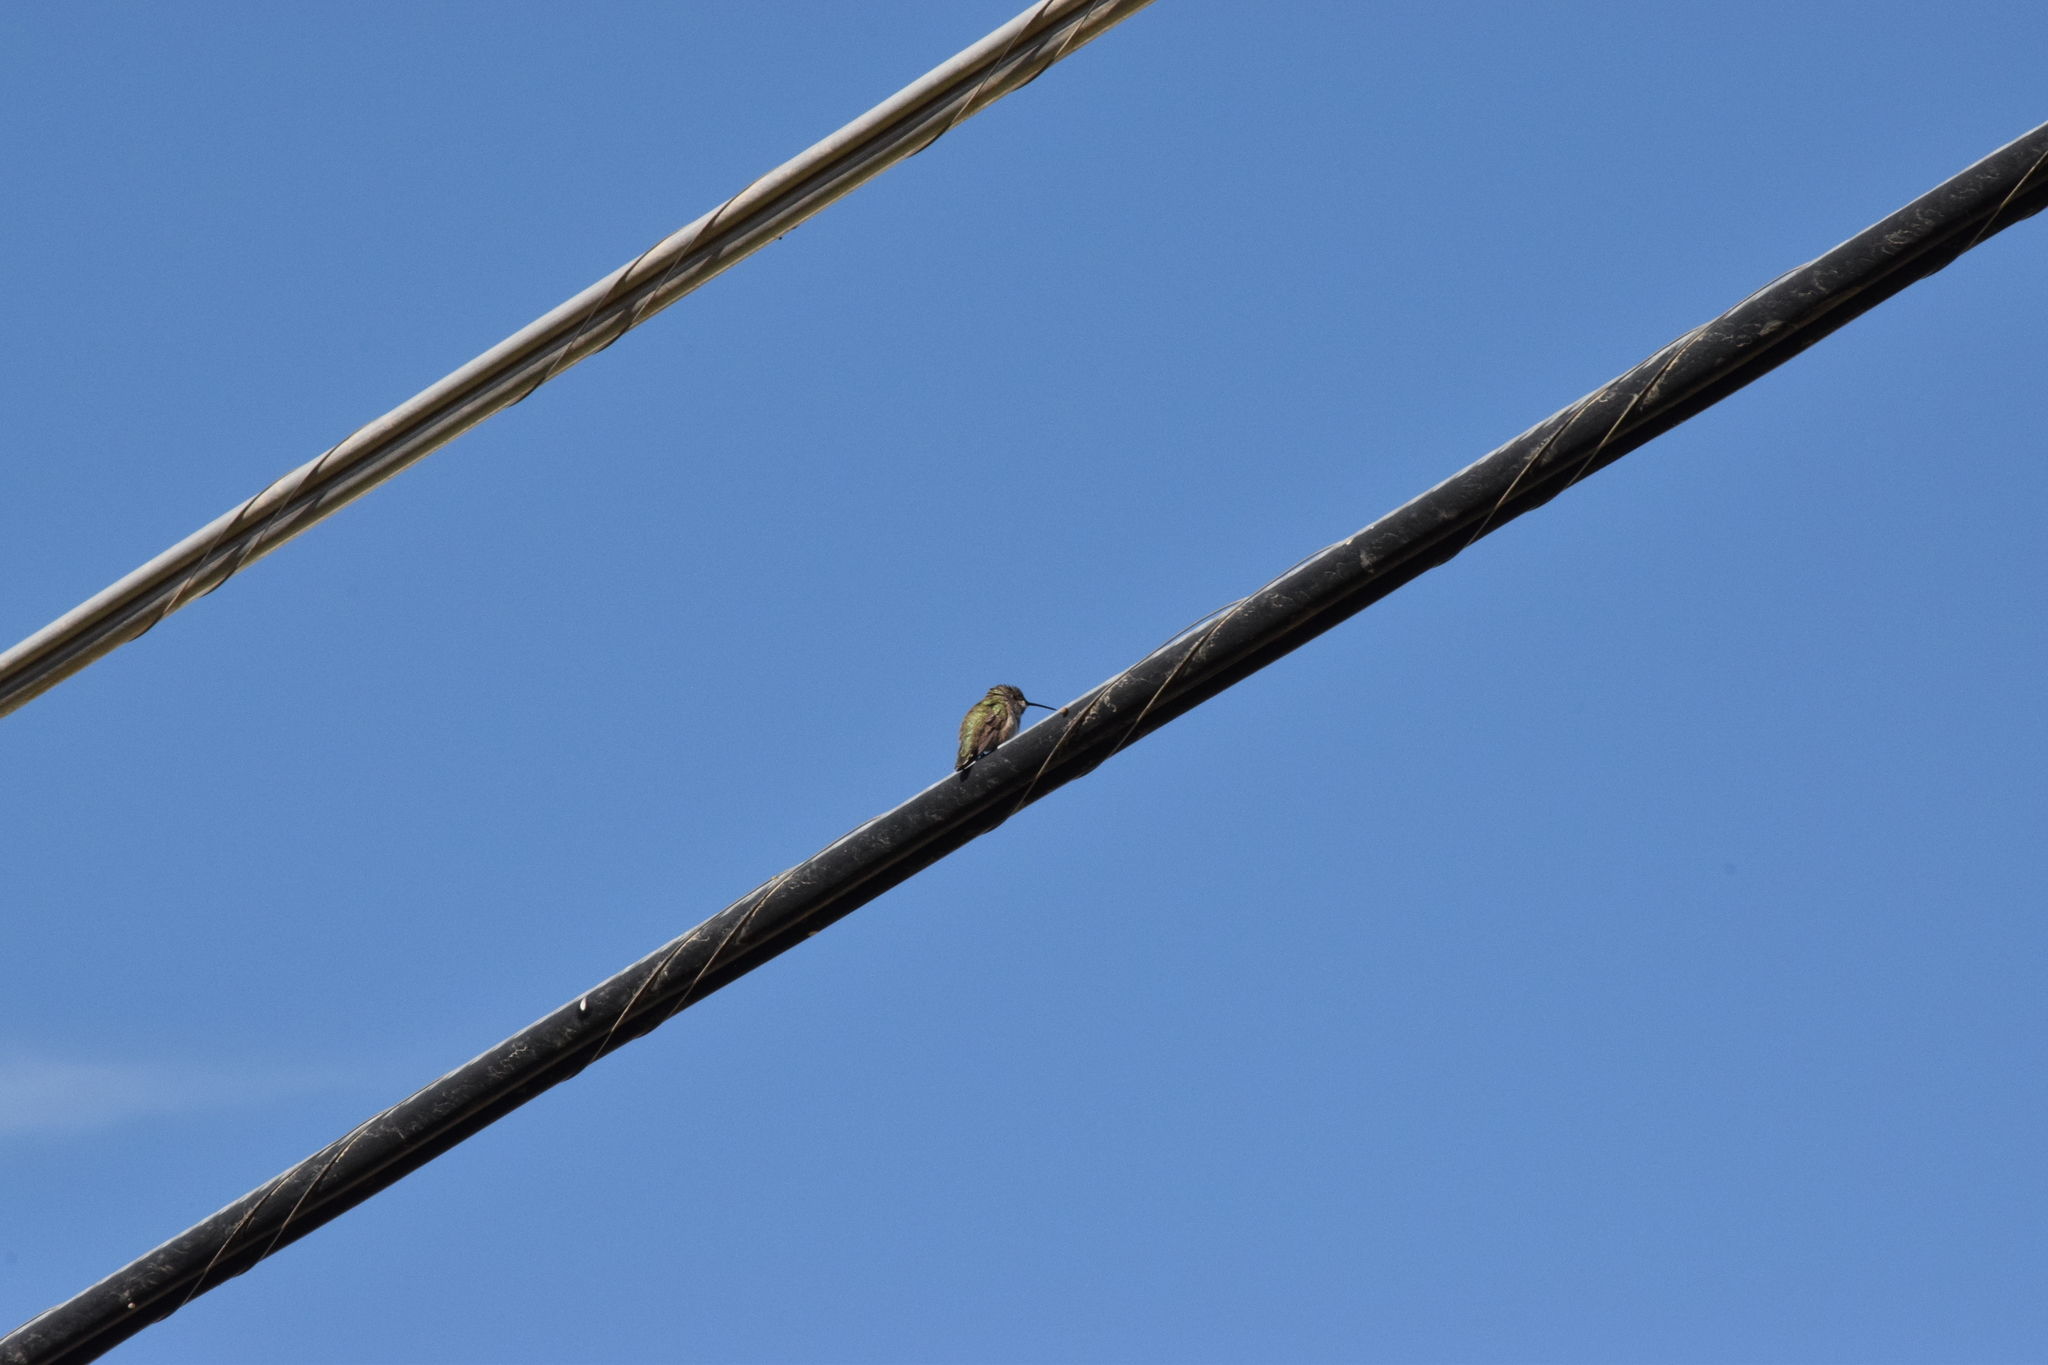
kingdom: Animalia
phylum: Chordata
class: Aves
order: Apodiformes
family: Trochilidae
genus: Calypte
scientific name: Calypte costae
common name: Costa's hummingbird
